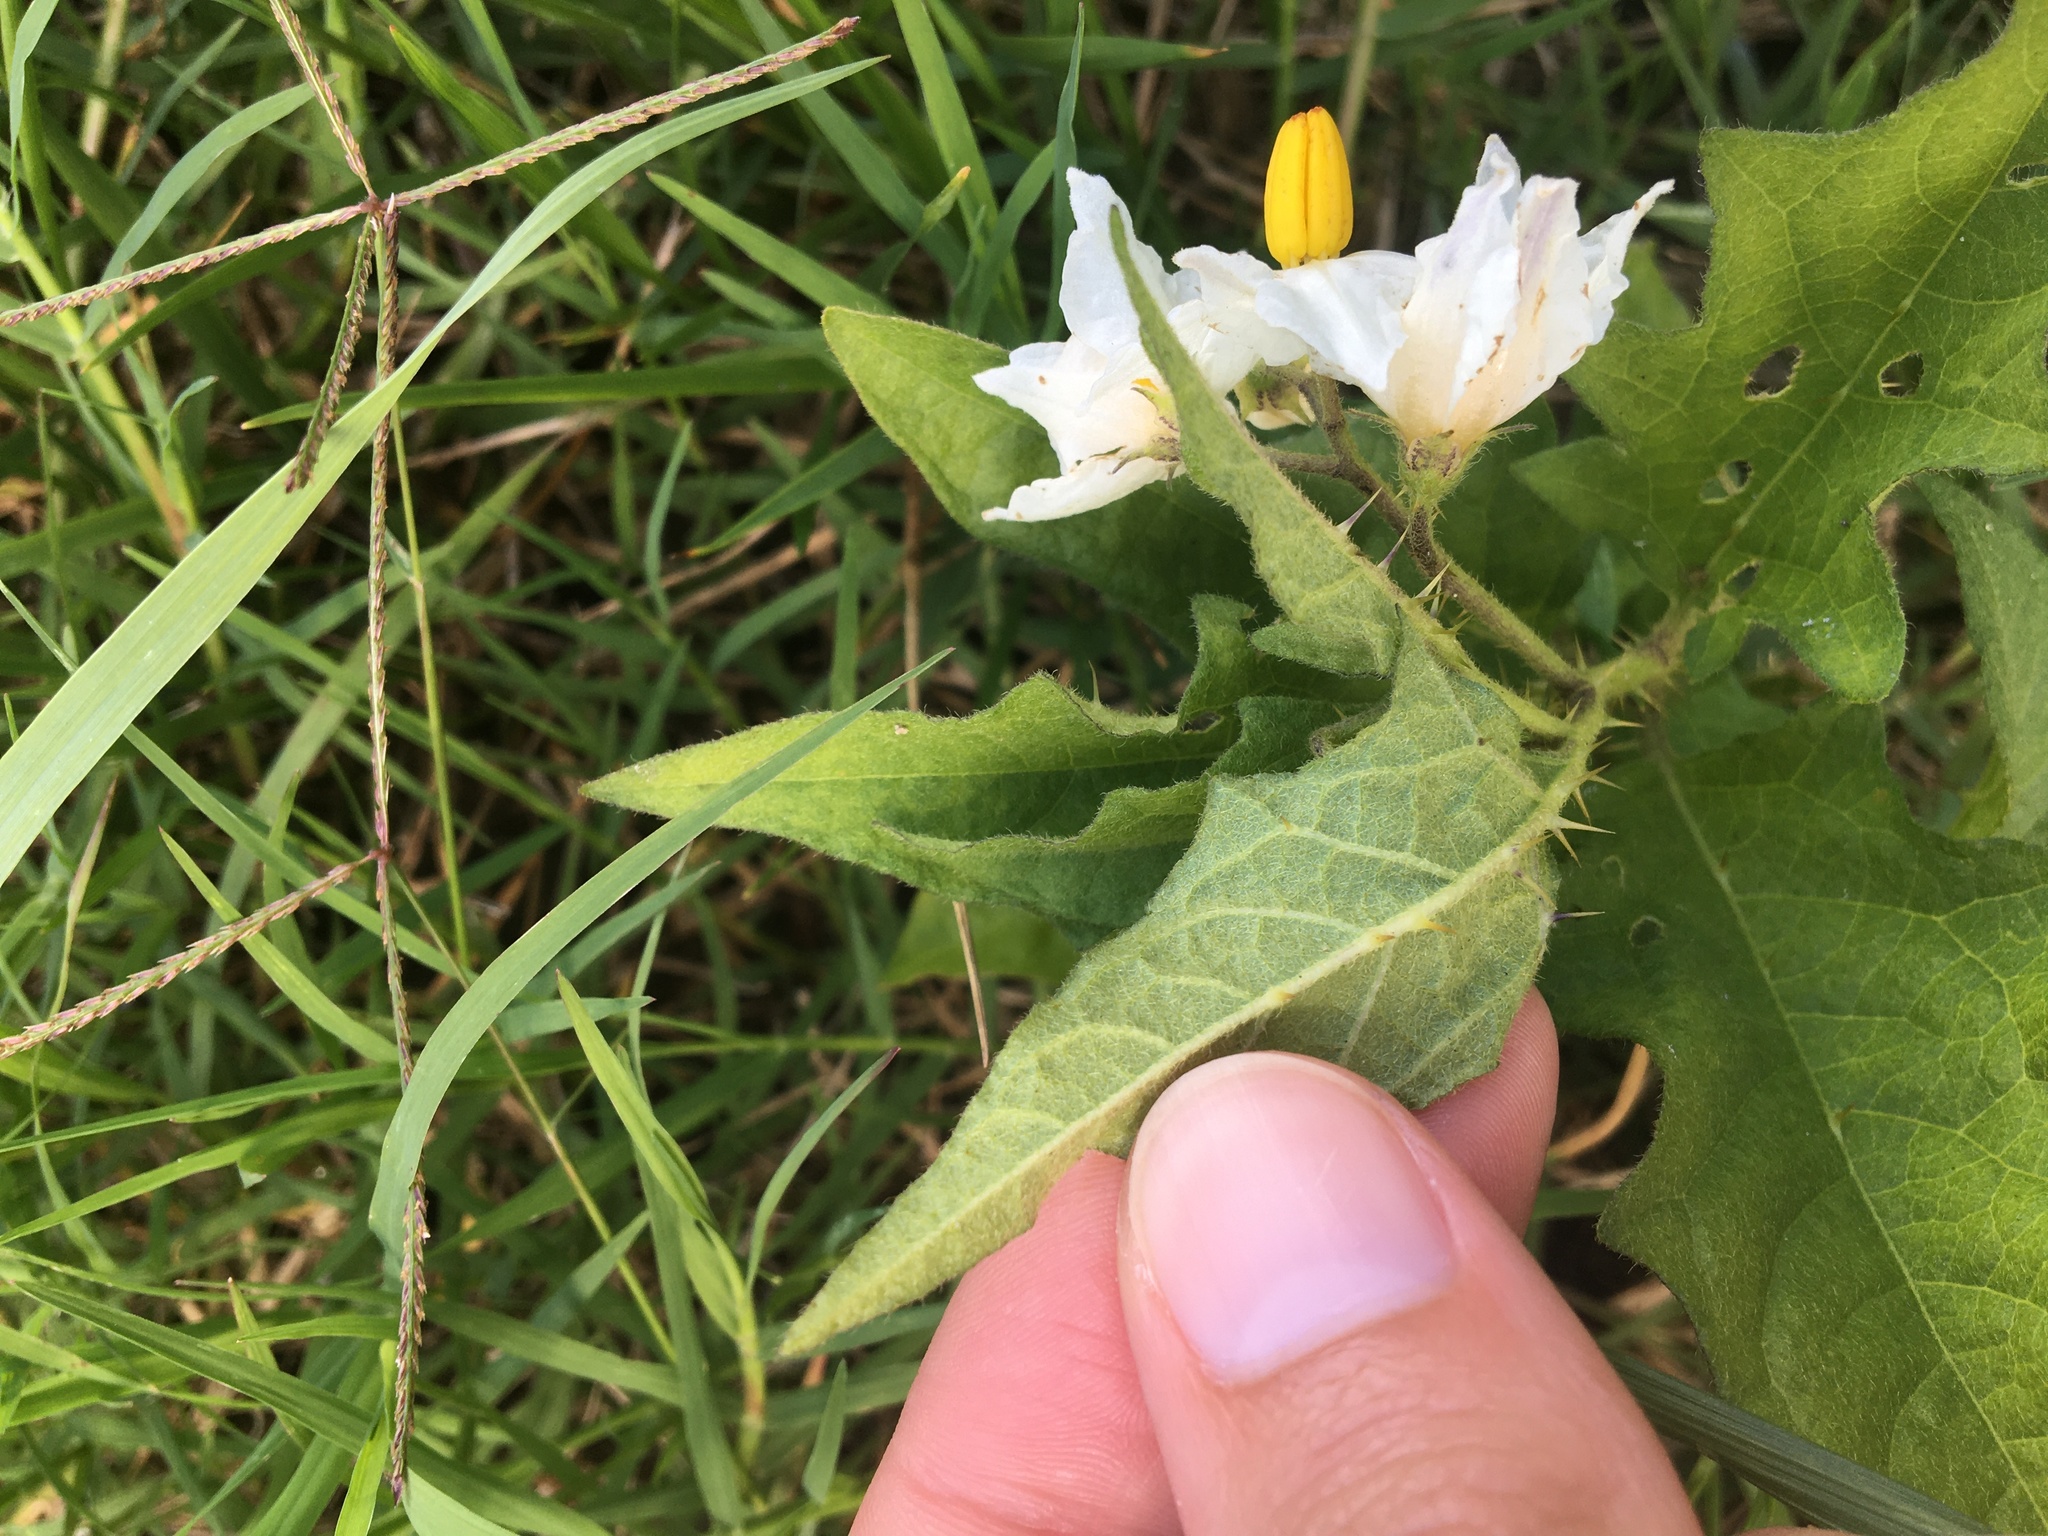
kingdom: Plantae
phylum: Tracheophyta
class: Magnoliopsida
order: Solanales
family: Solanaceae
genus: Solanum
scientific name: Solanum carolinense
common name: Horse-nettle
